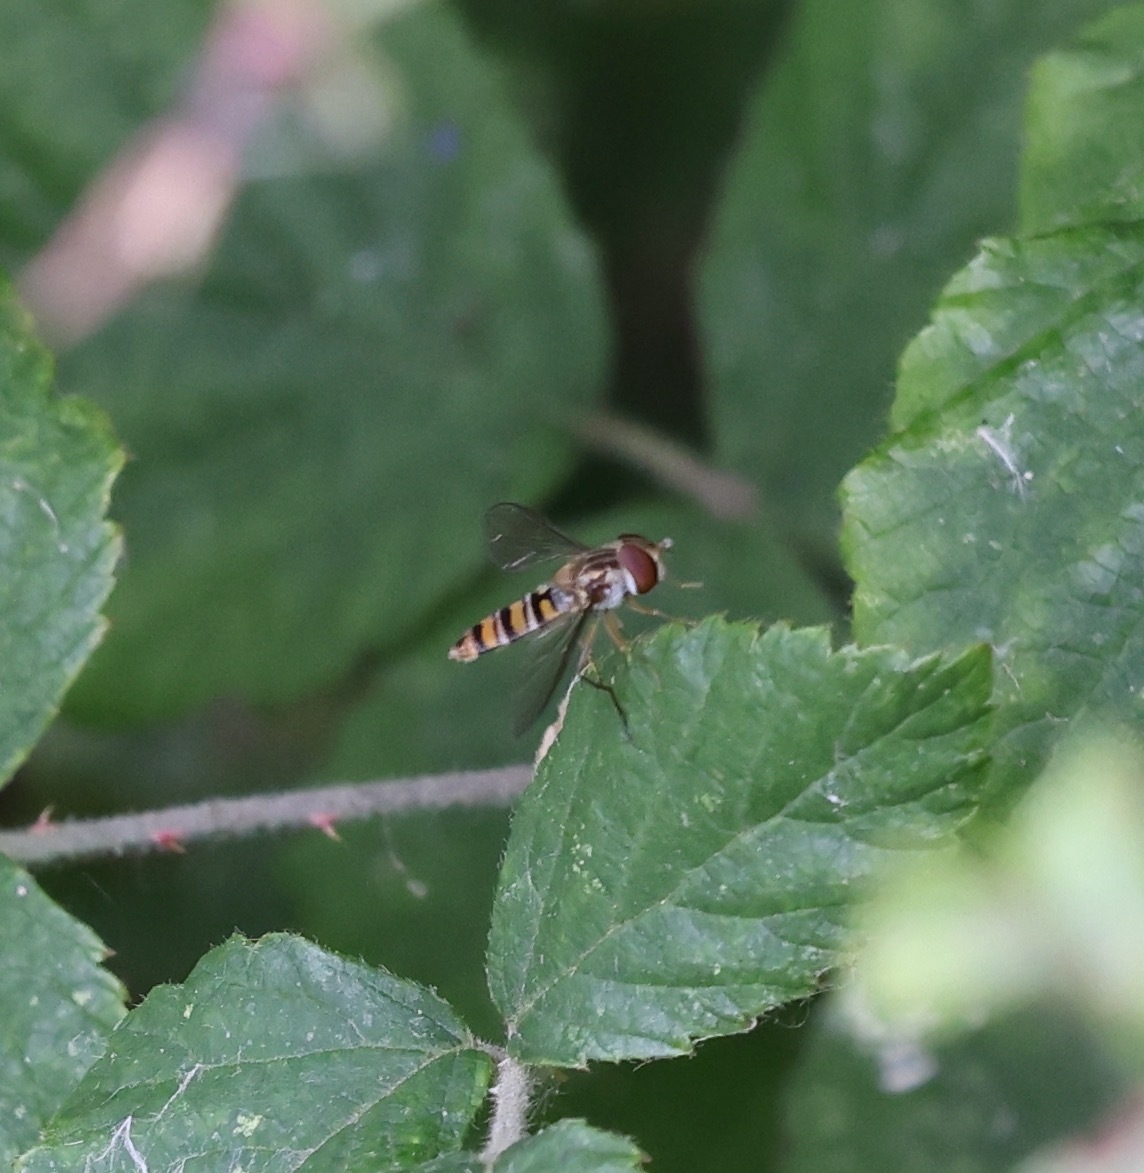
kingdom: Animalia
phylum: Arthropoda
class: Insecta
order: Diptera
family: Syrphidae
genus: Episyrphus
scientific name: Episyrphus balteatus
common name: Marmalade hoverfly
